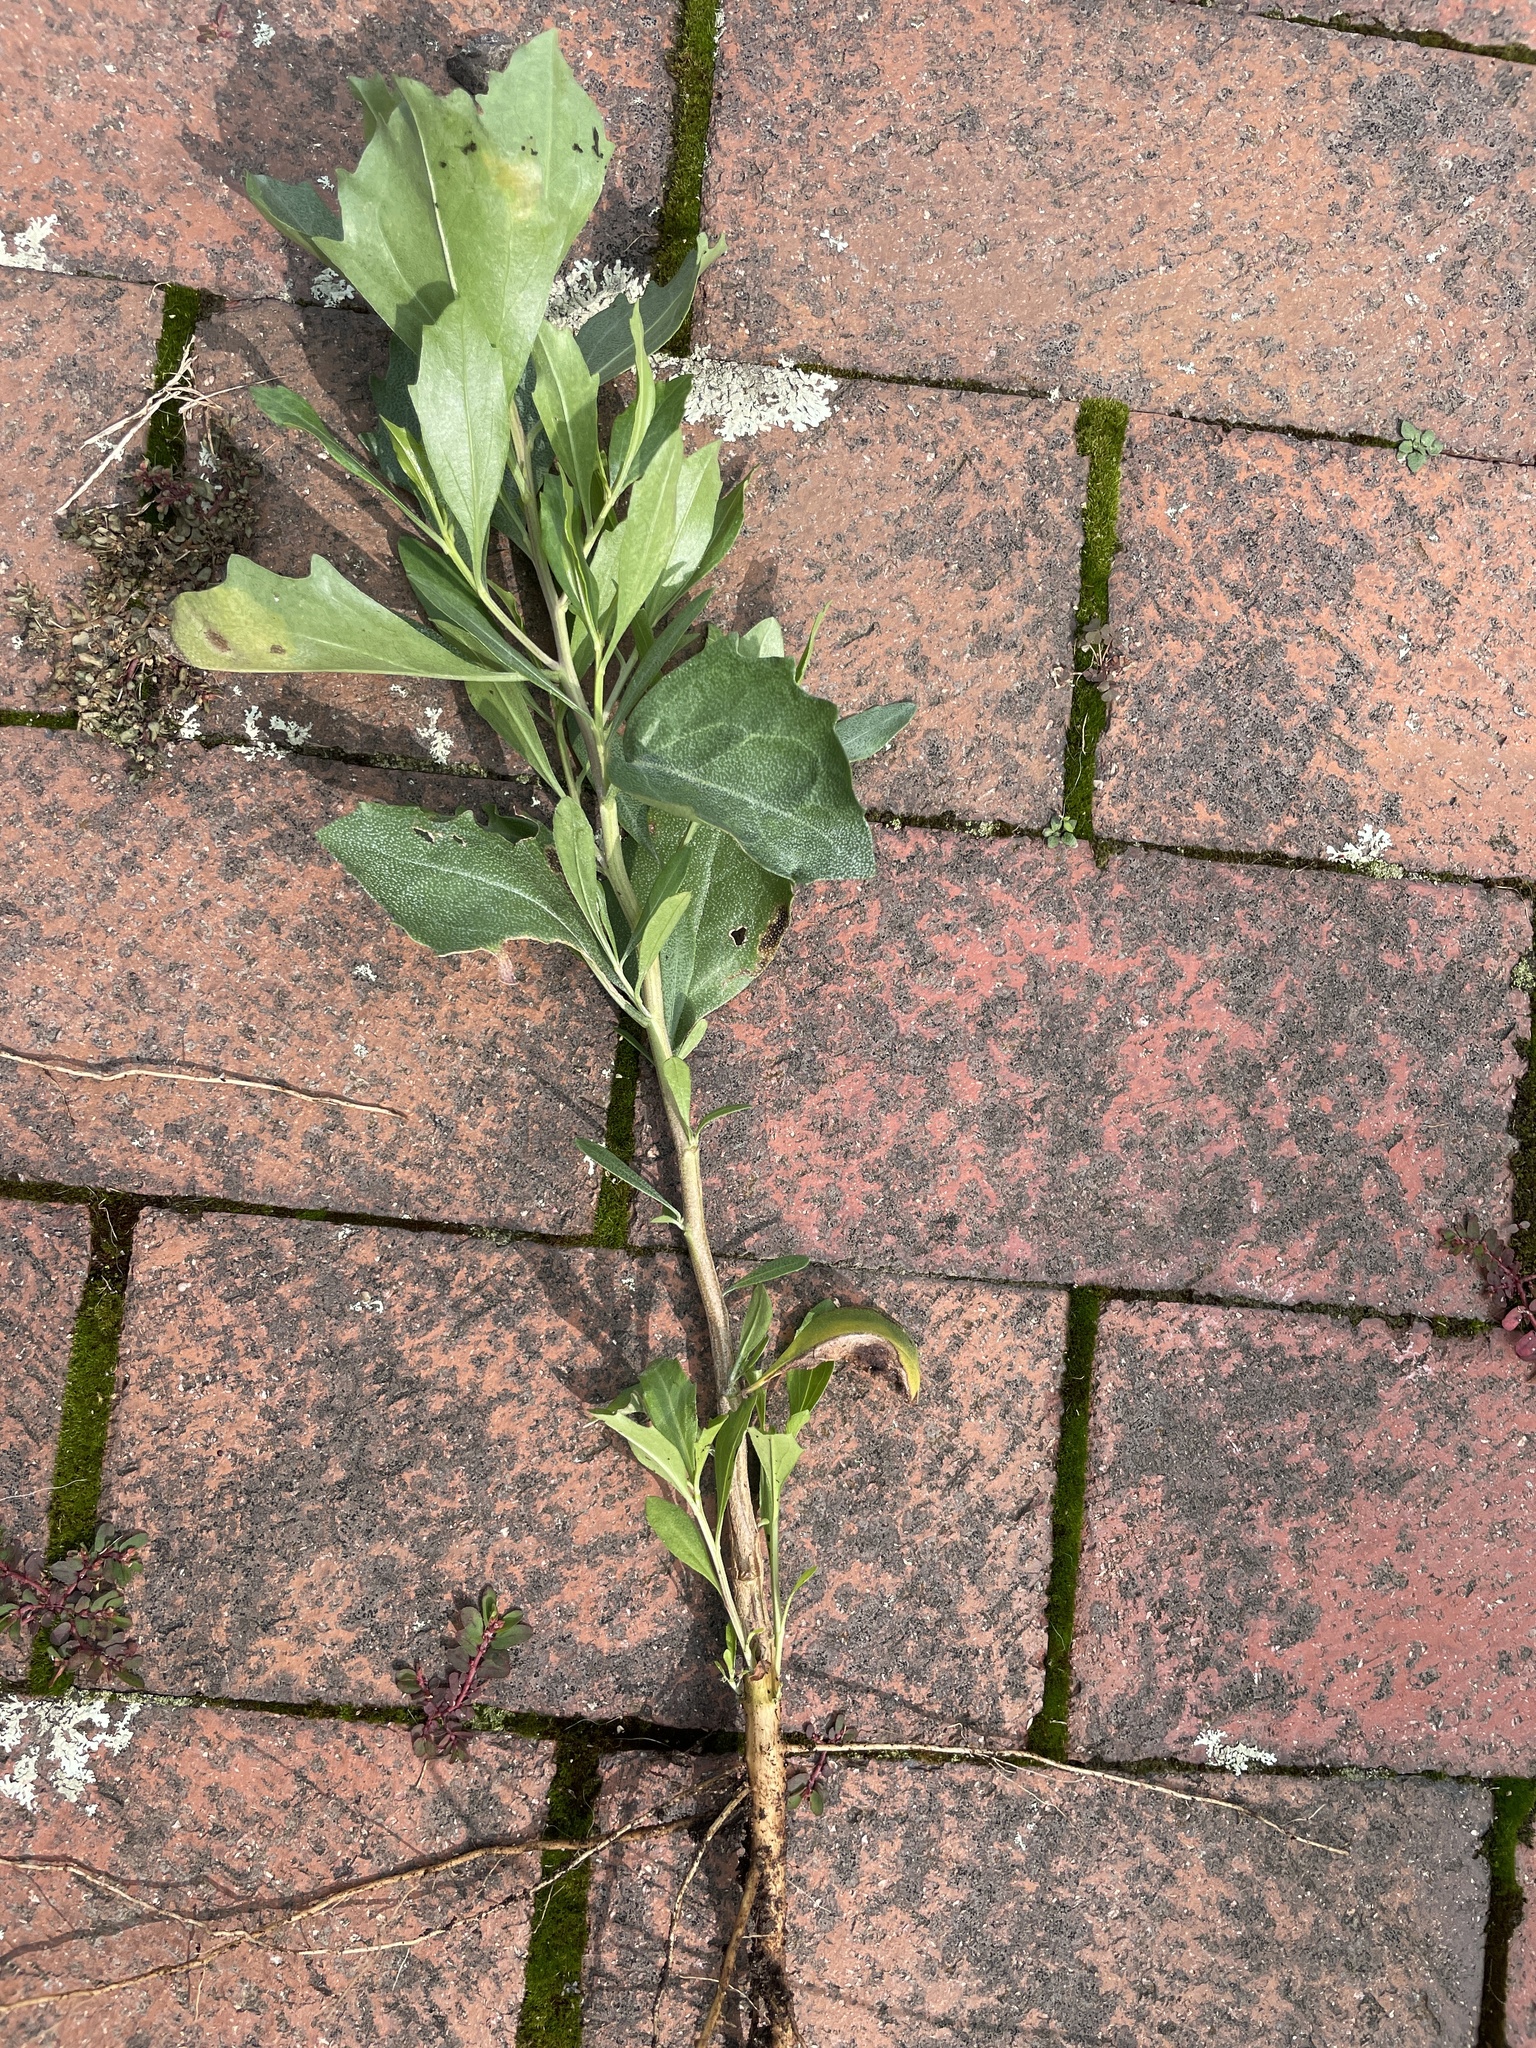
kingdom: Plantae
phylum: Tracheophyta
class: Magnoliopsida
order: Asterales
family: Asteraceae
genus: Baccharis
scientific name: Baccharis halimifolia
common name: Eastern baccharis
